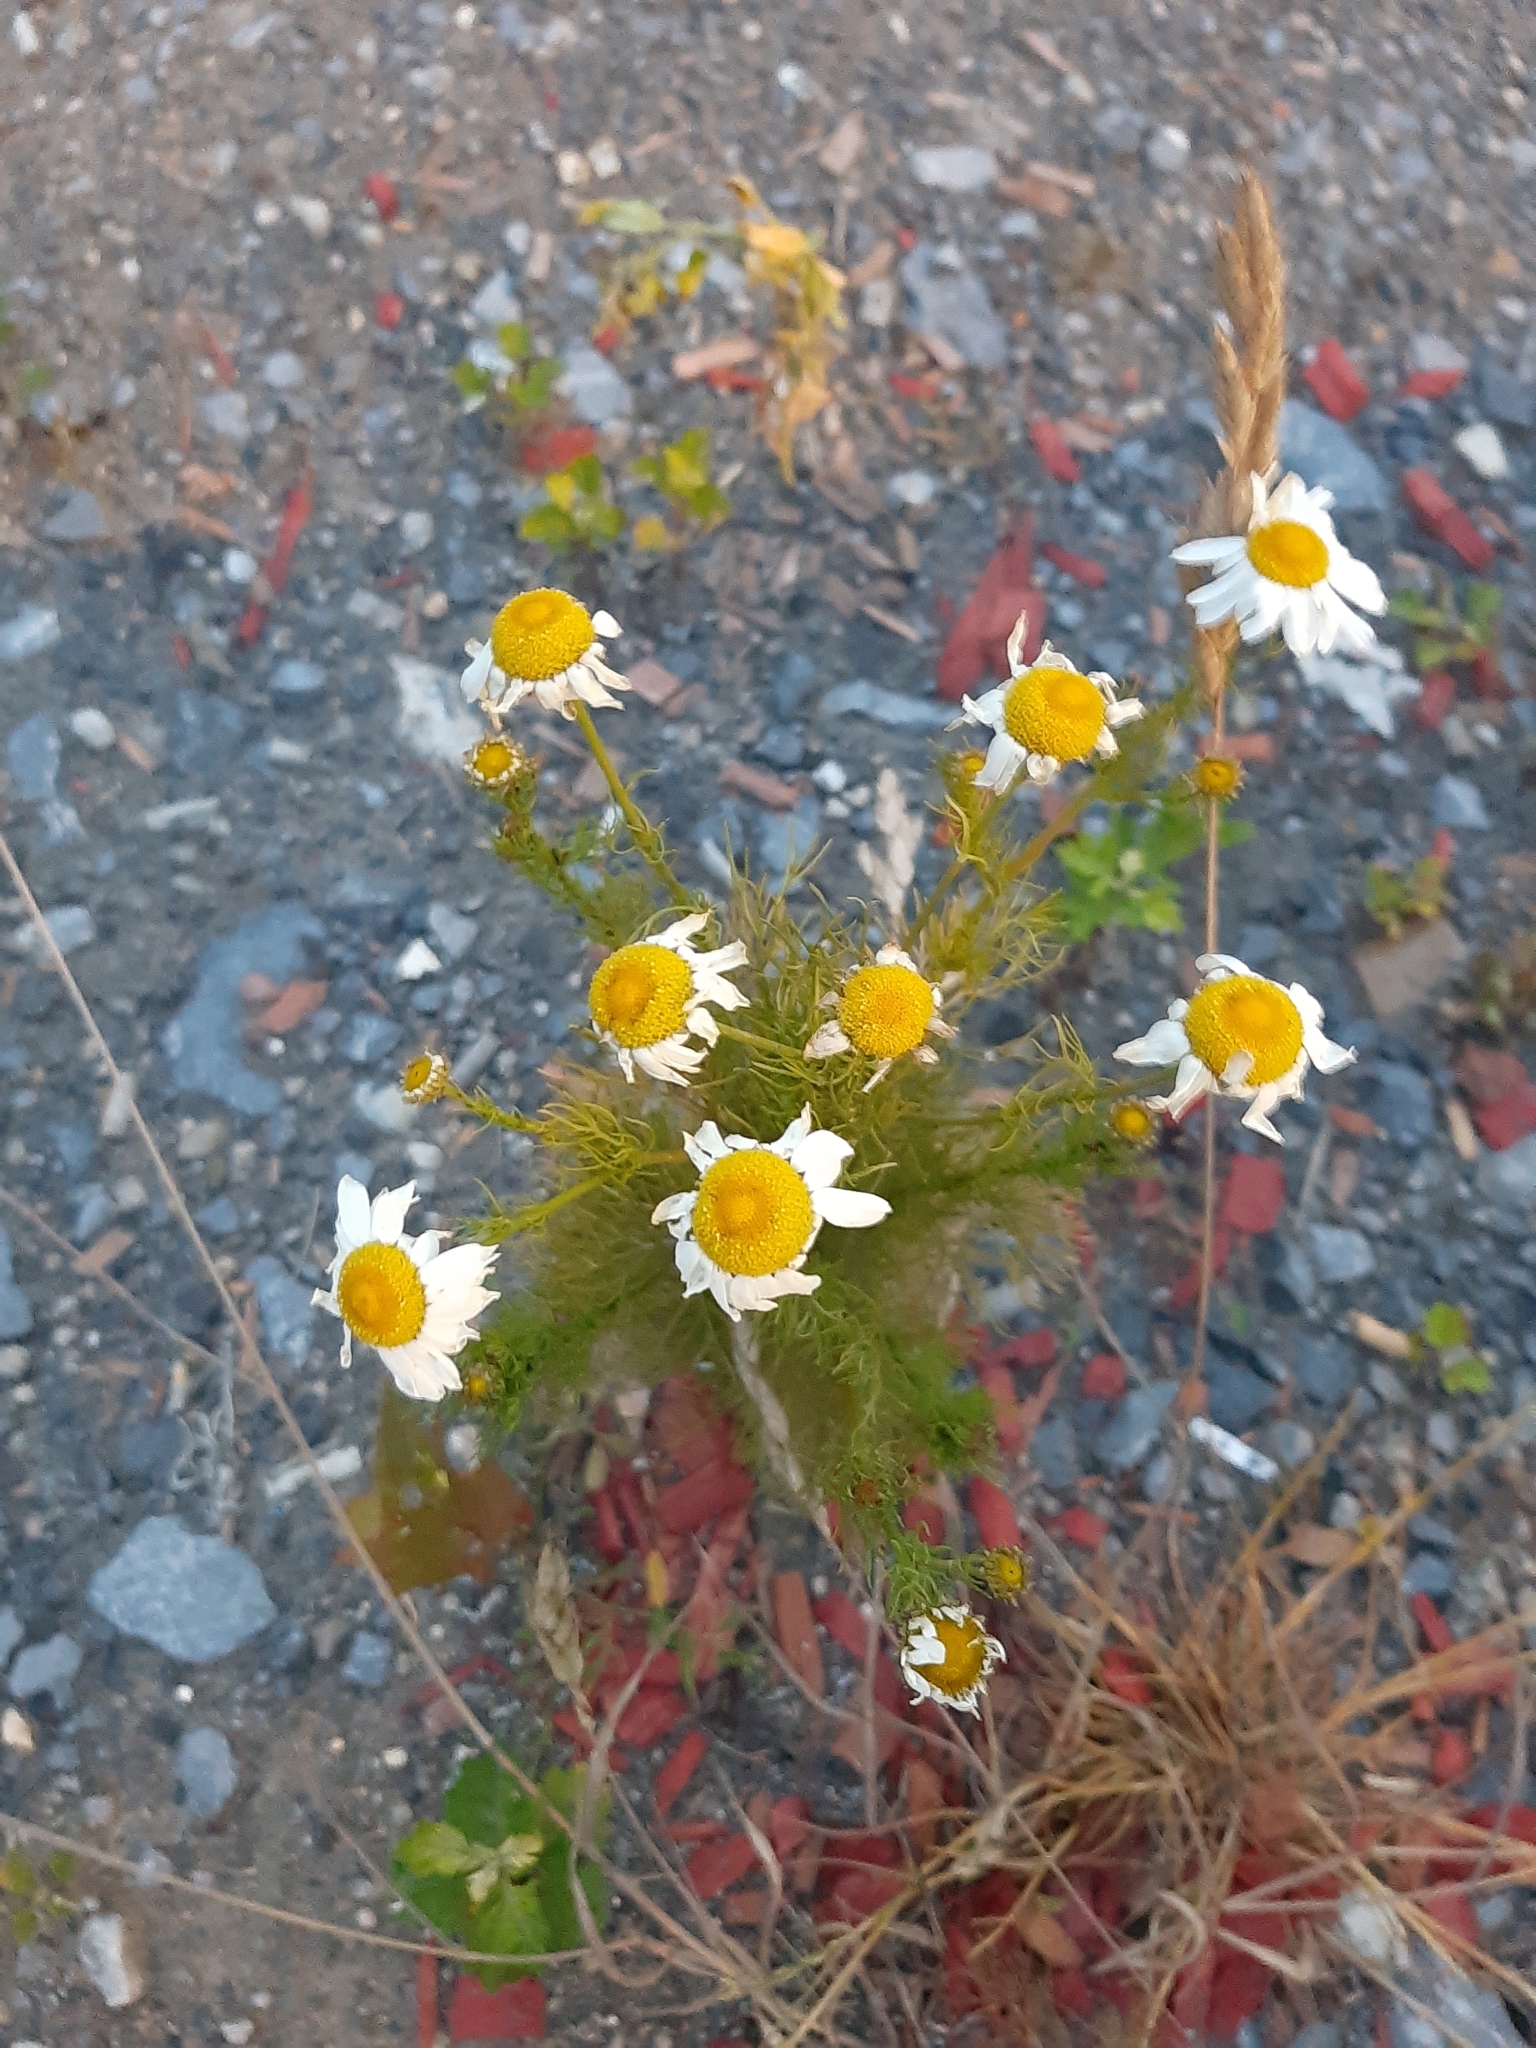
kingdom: Plantae
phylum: Tracheophyta
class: Magnoliopsida
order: Asterales
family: Asteraceae
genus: Tripleurospermum
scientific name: Tripleurospermum inodorum
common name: Scentless mayweed
